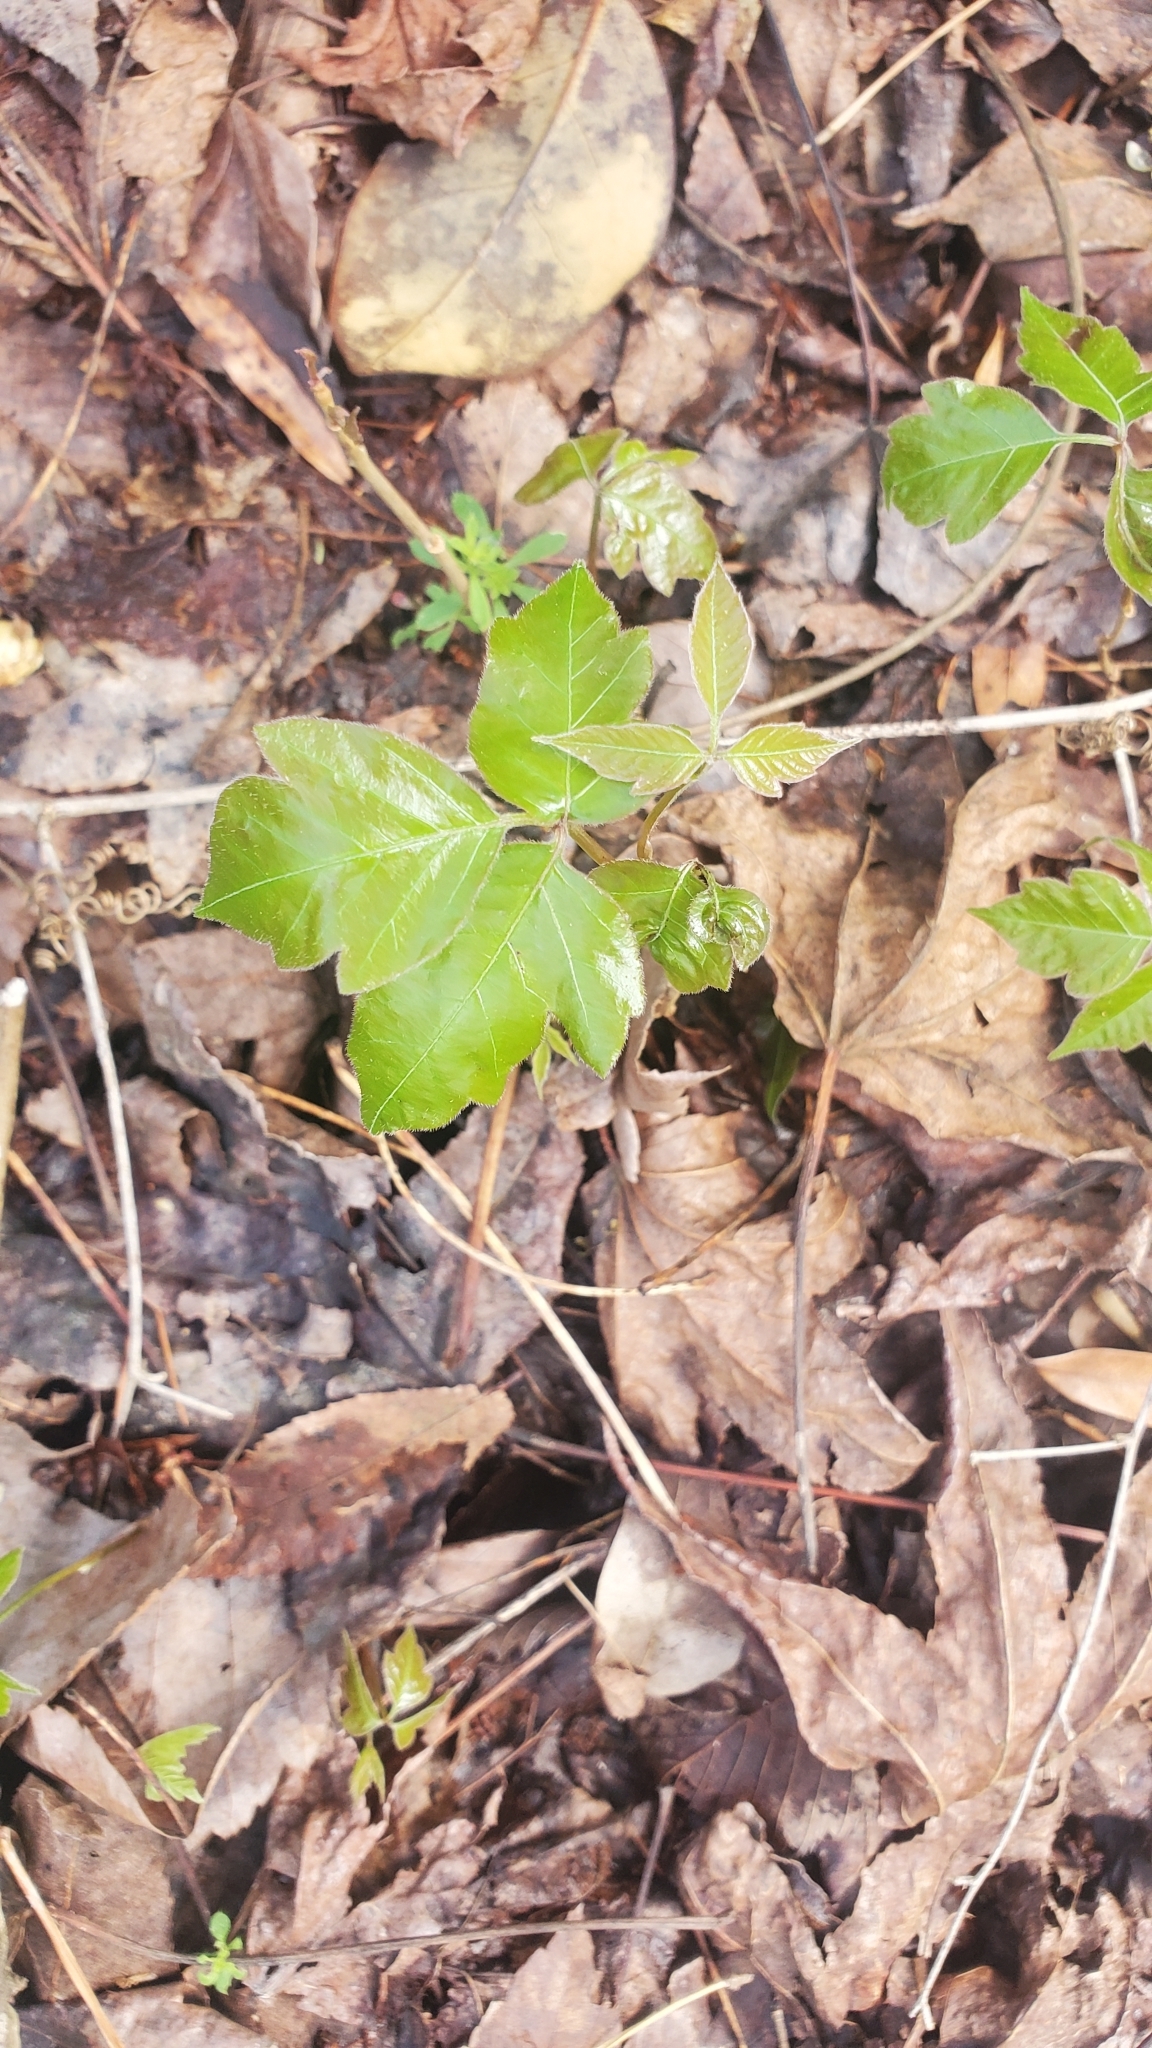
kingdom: Plantae
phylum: Tracheophyta
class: Magnoliopsida
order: Sapindales
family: Anacardiaceae
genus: Toxicodendron
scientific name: Toxicodendron radicans
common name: Poison ivy
